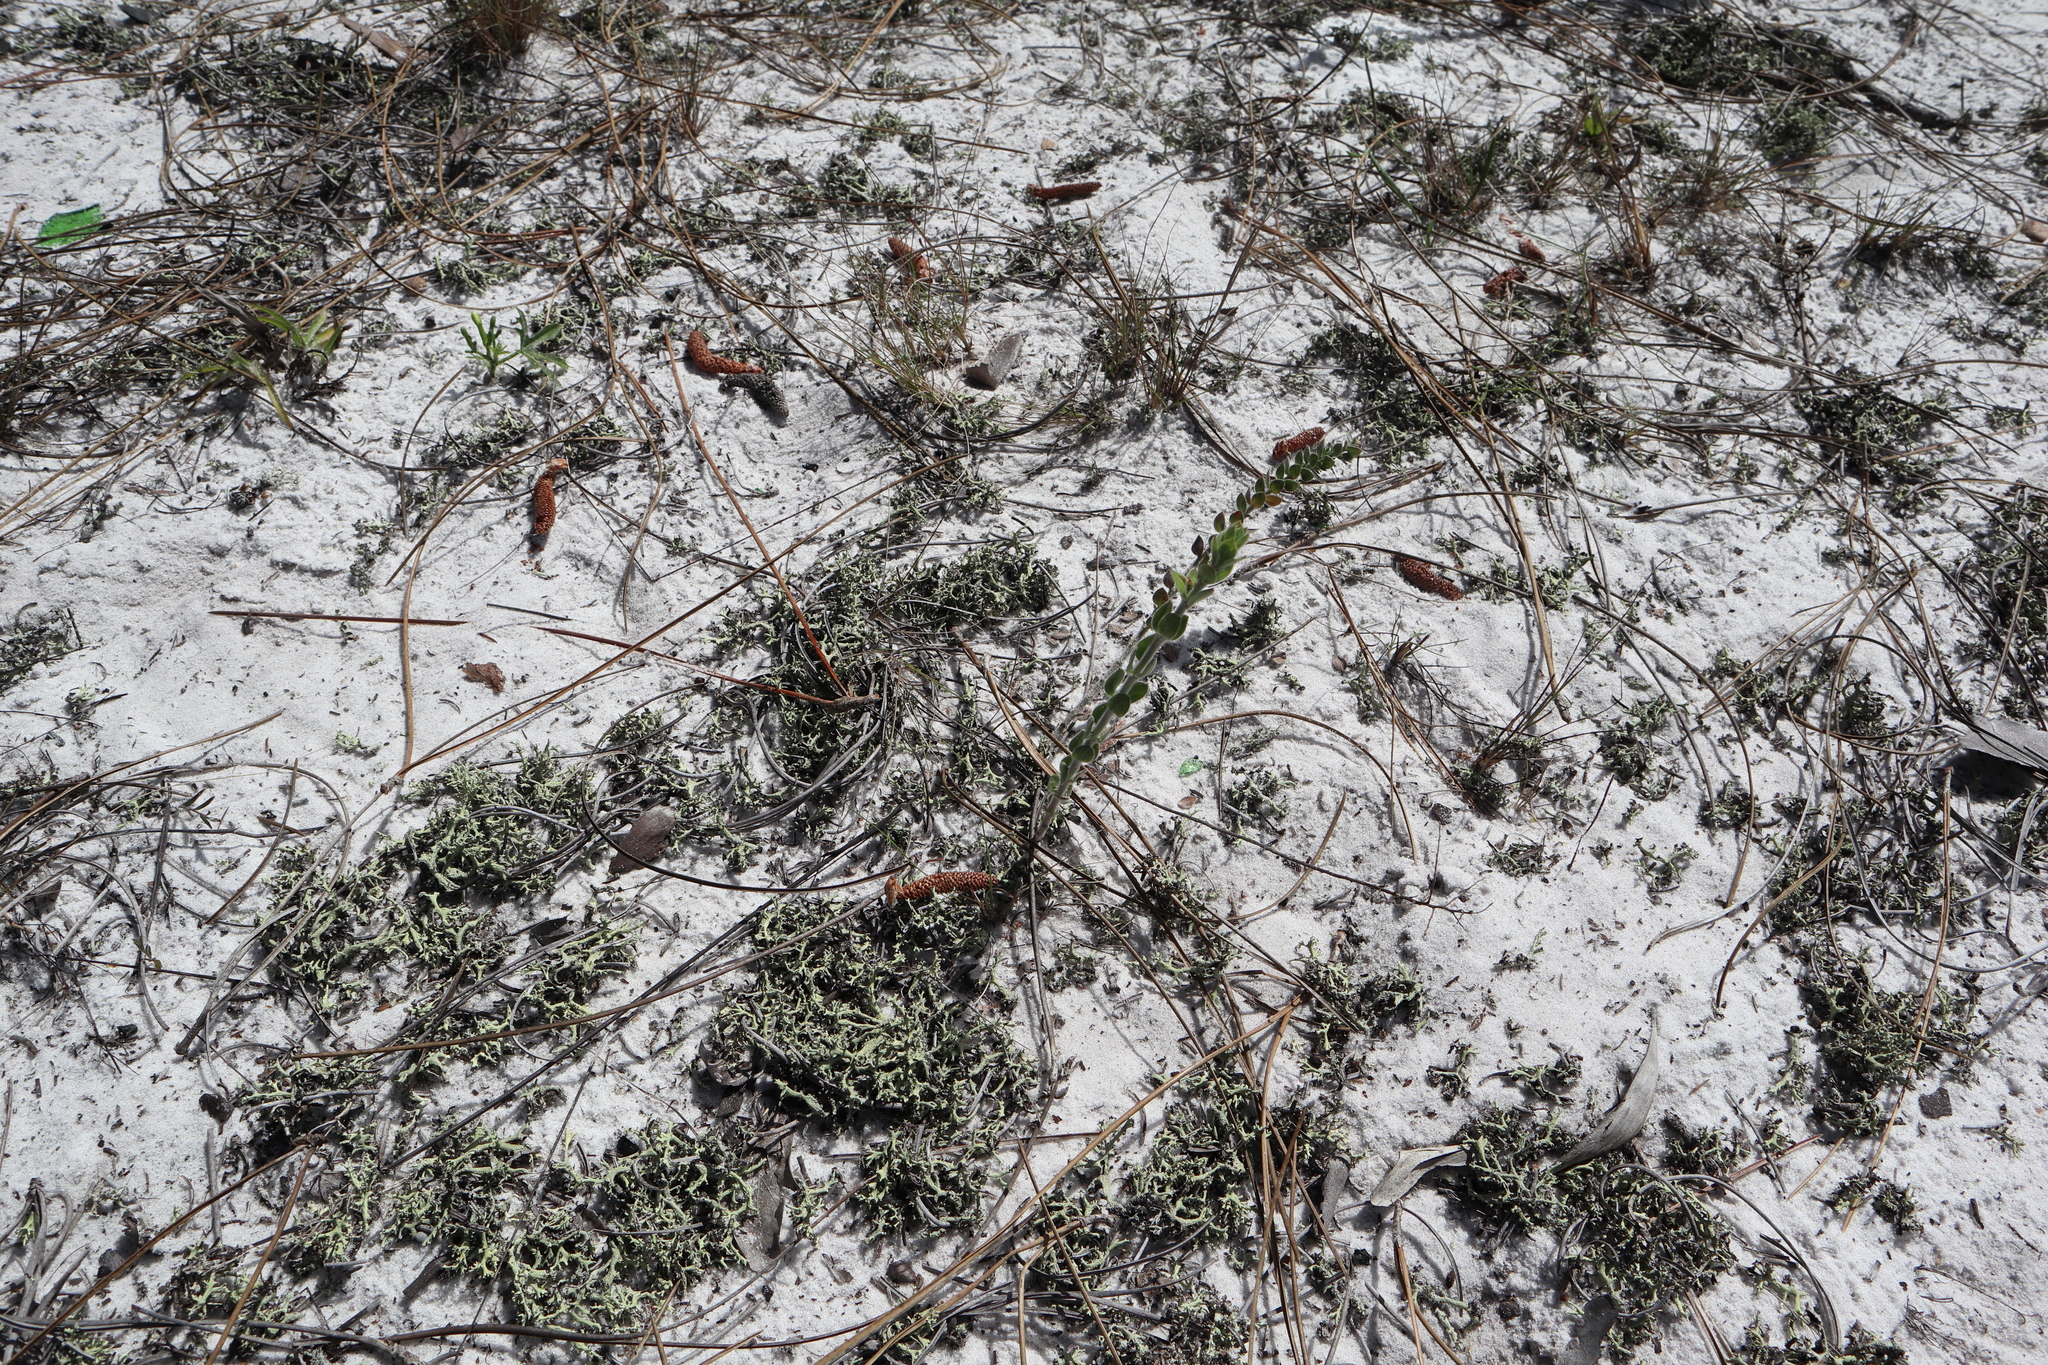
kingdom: Plantae
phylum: Tracheophyta
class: Magnoliopsida
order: Malvales
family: Cistaceae
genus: Lechea
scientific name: Lechea cernua
